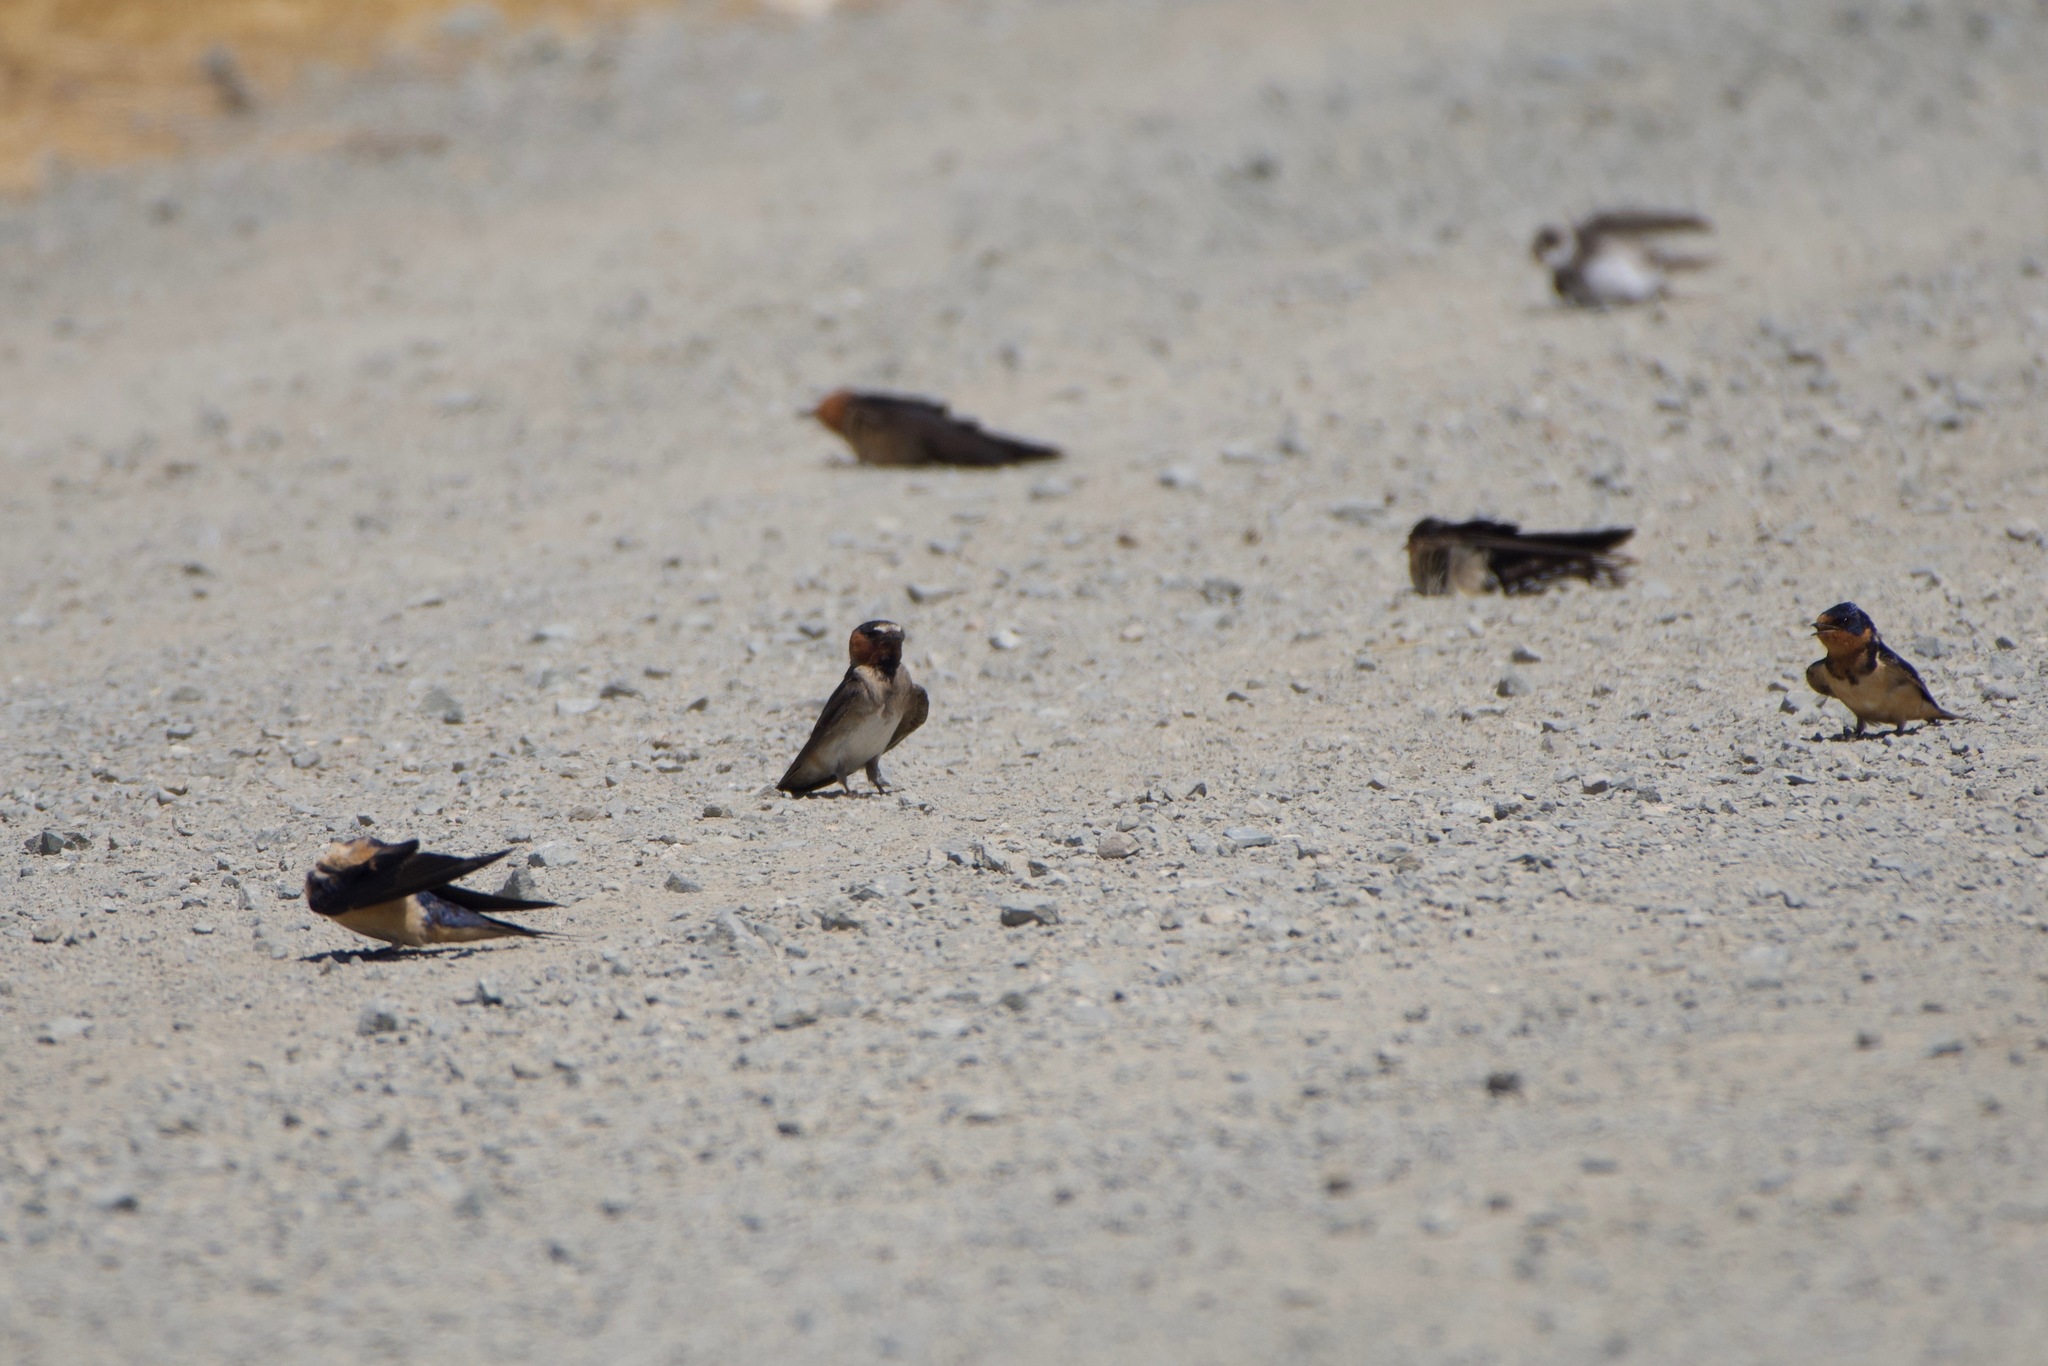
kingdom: Animalia
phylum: Chordata
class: Aves
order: Passeriformes
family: Hirundinidae
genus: Petrochelidon
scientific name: Petrochelidon pyrrhonota
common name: American cliff swallow
